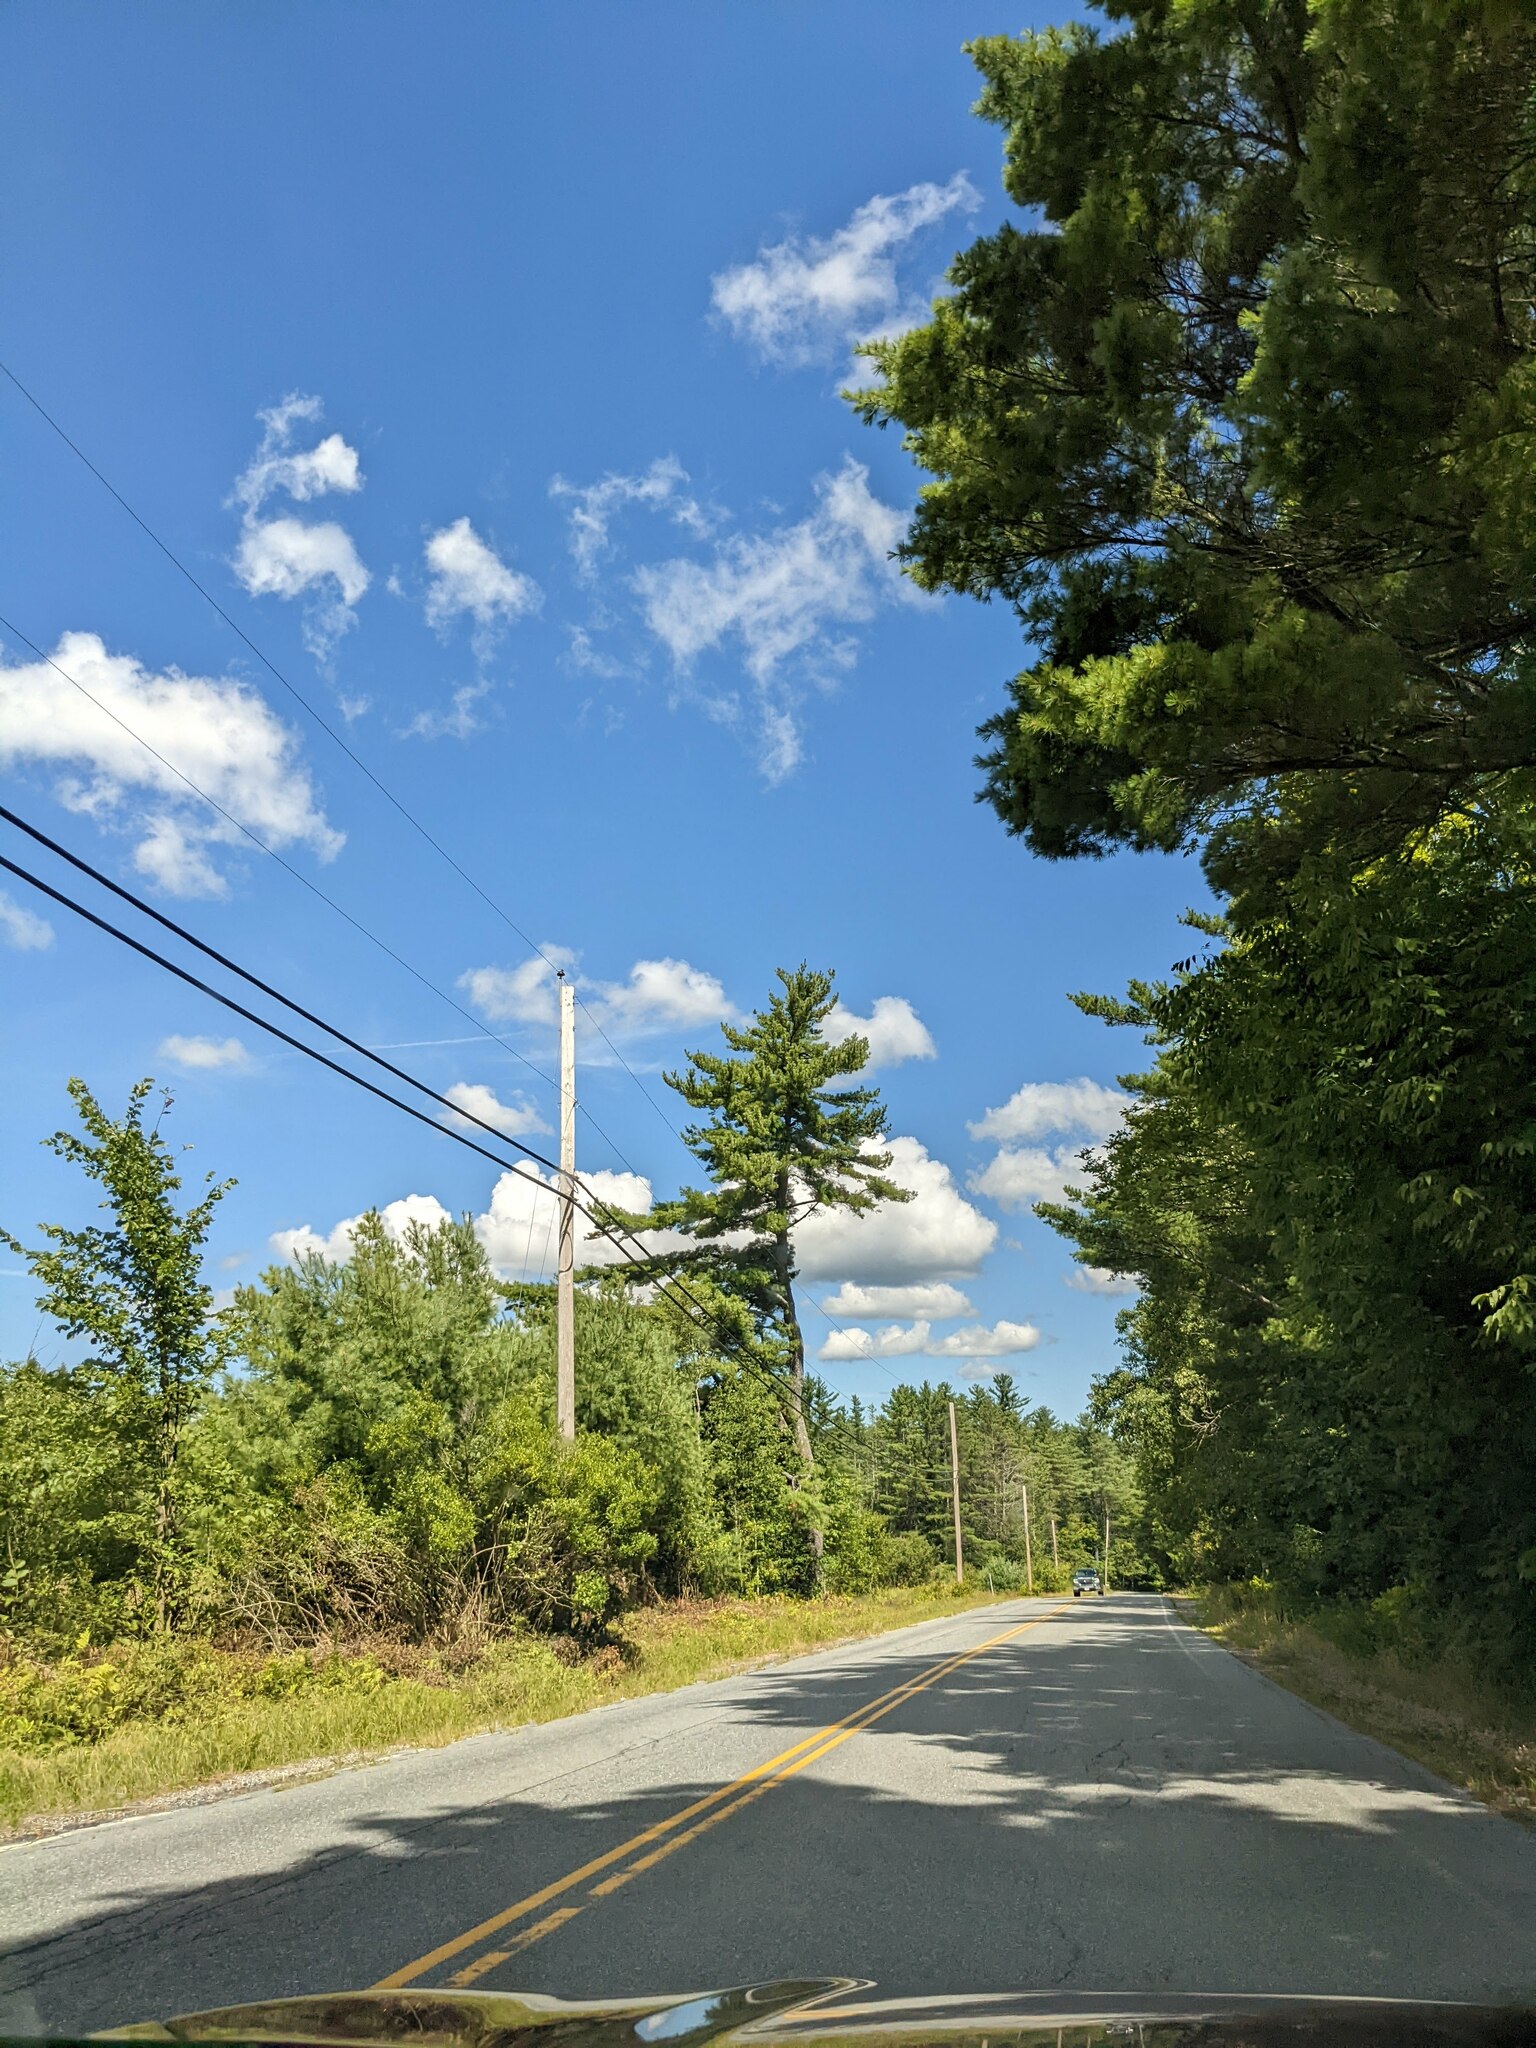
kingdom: Plantae
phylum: Tracheophyta
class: Pinopsida
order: Pinales
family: Pinaceae
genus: Pinus
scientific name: Pinus strobus
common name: Weymouth pine
